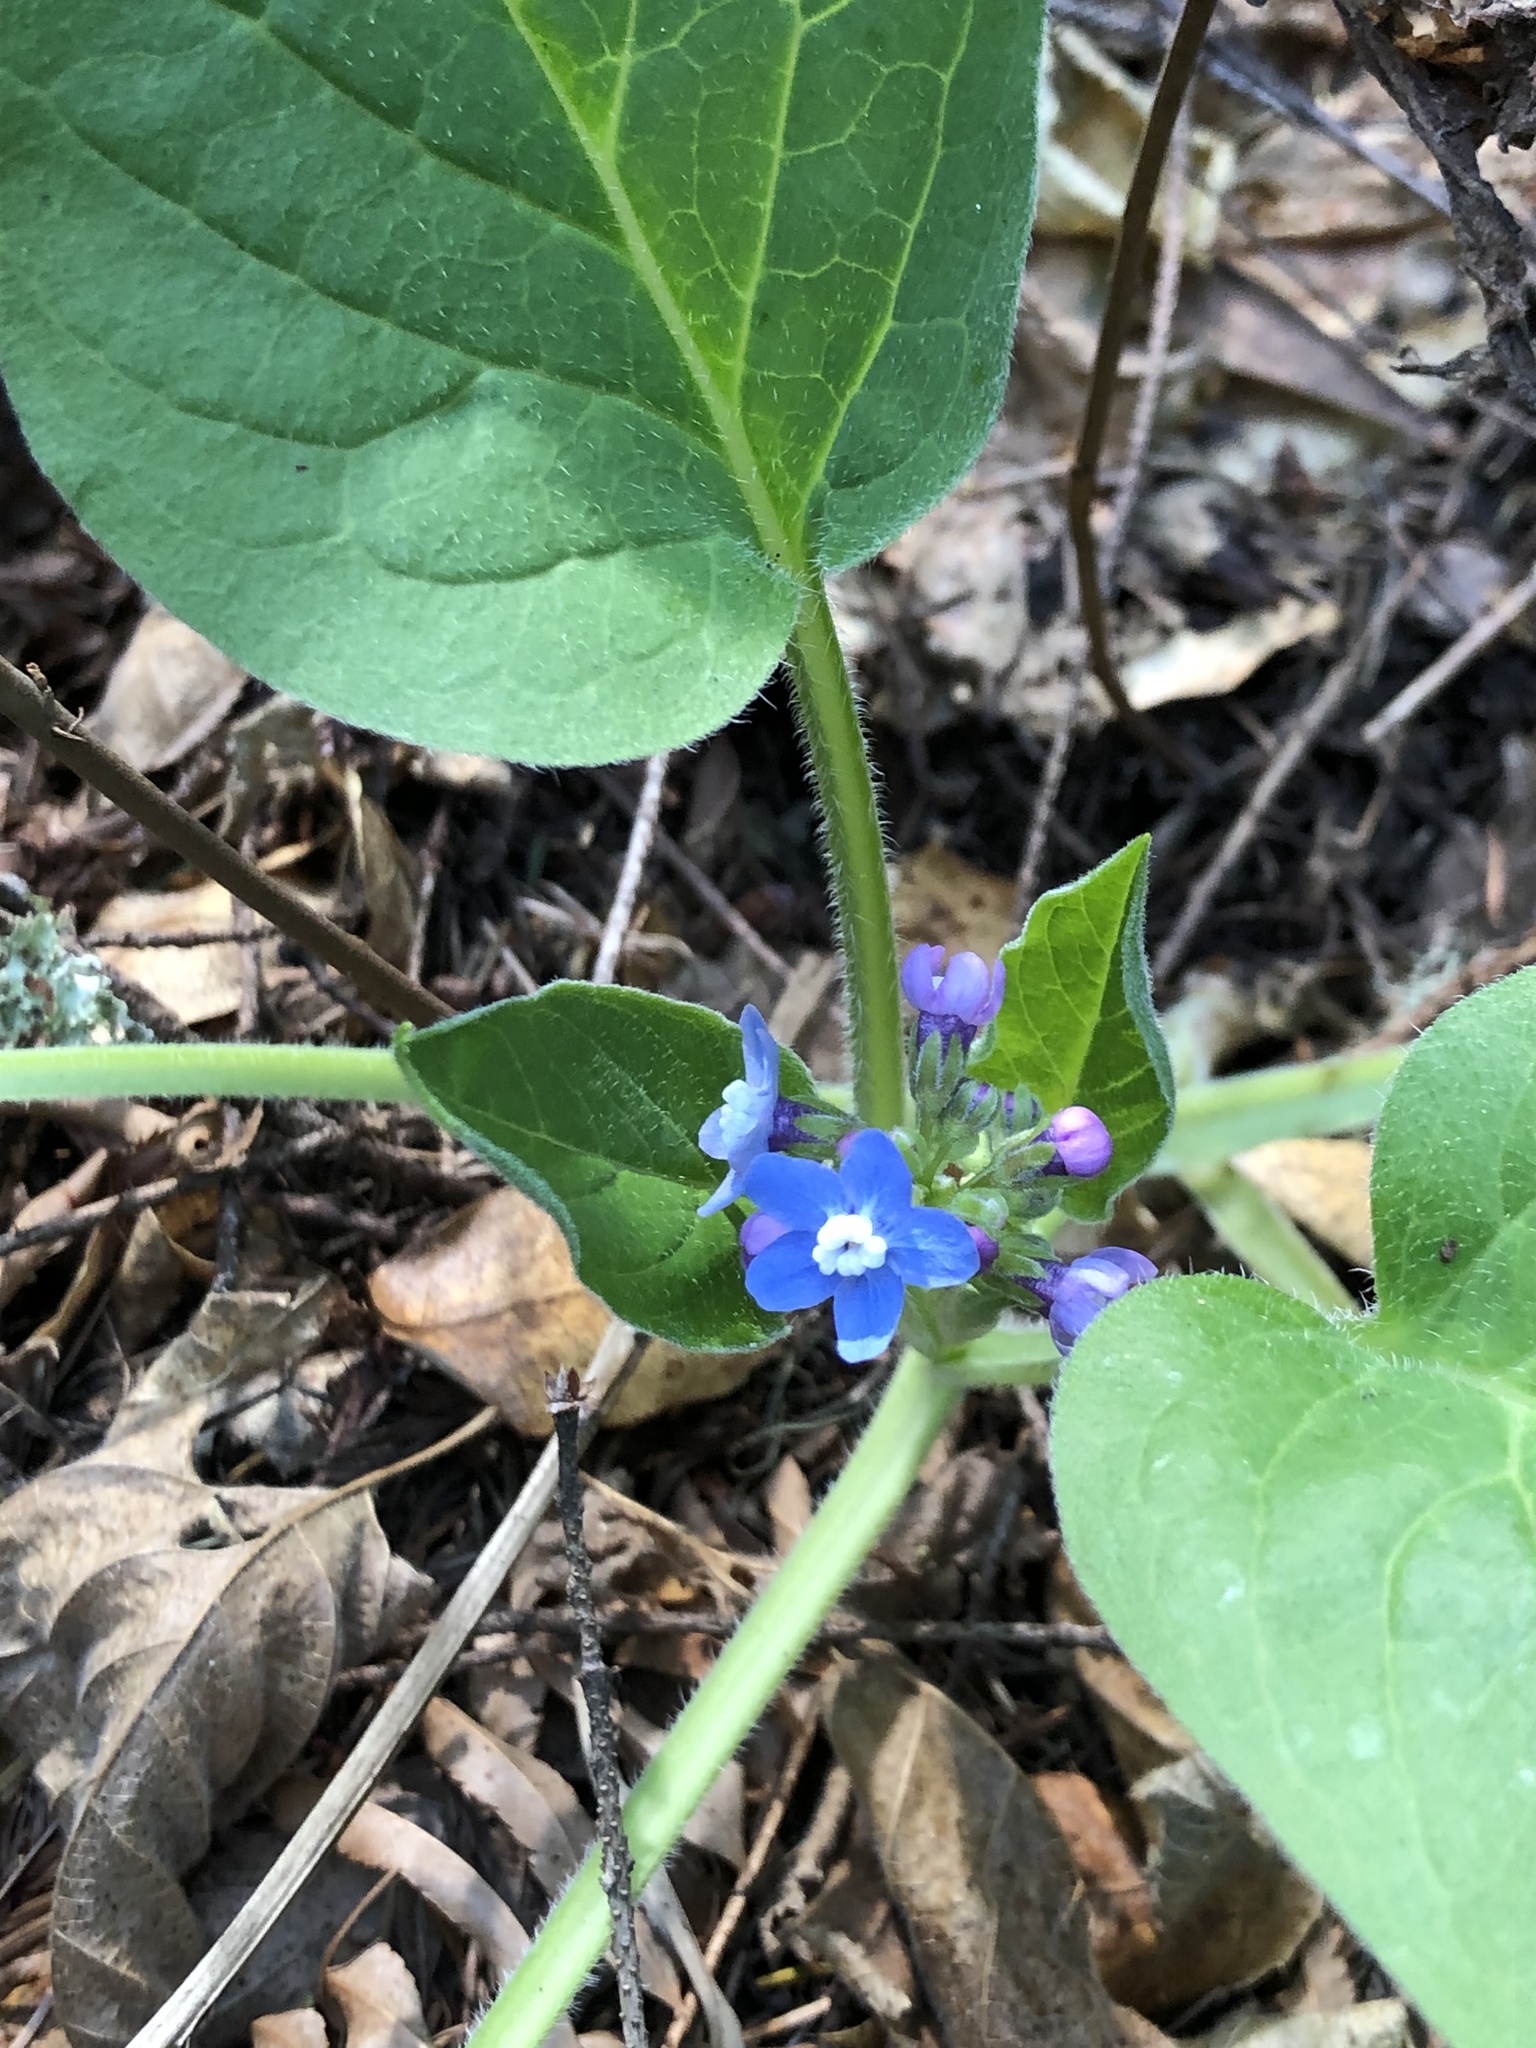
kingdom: Plantae
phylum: Tracheophyta
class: Magnoliopsida
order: Boraginales
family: Boraginaceae
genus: Adelinia
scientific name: Adelinia grande
